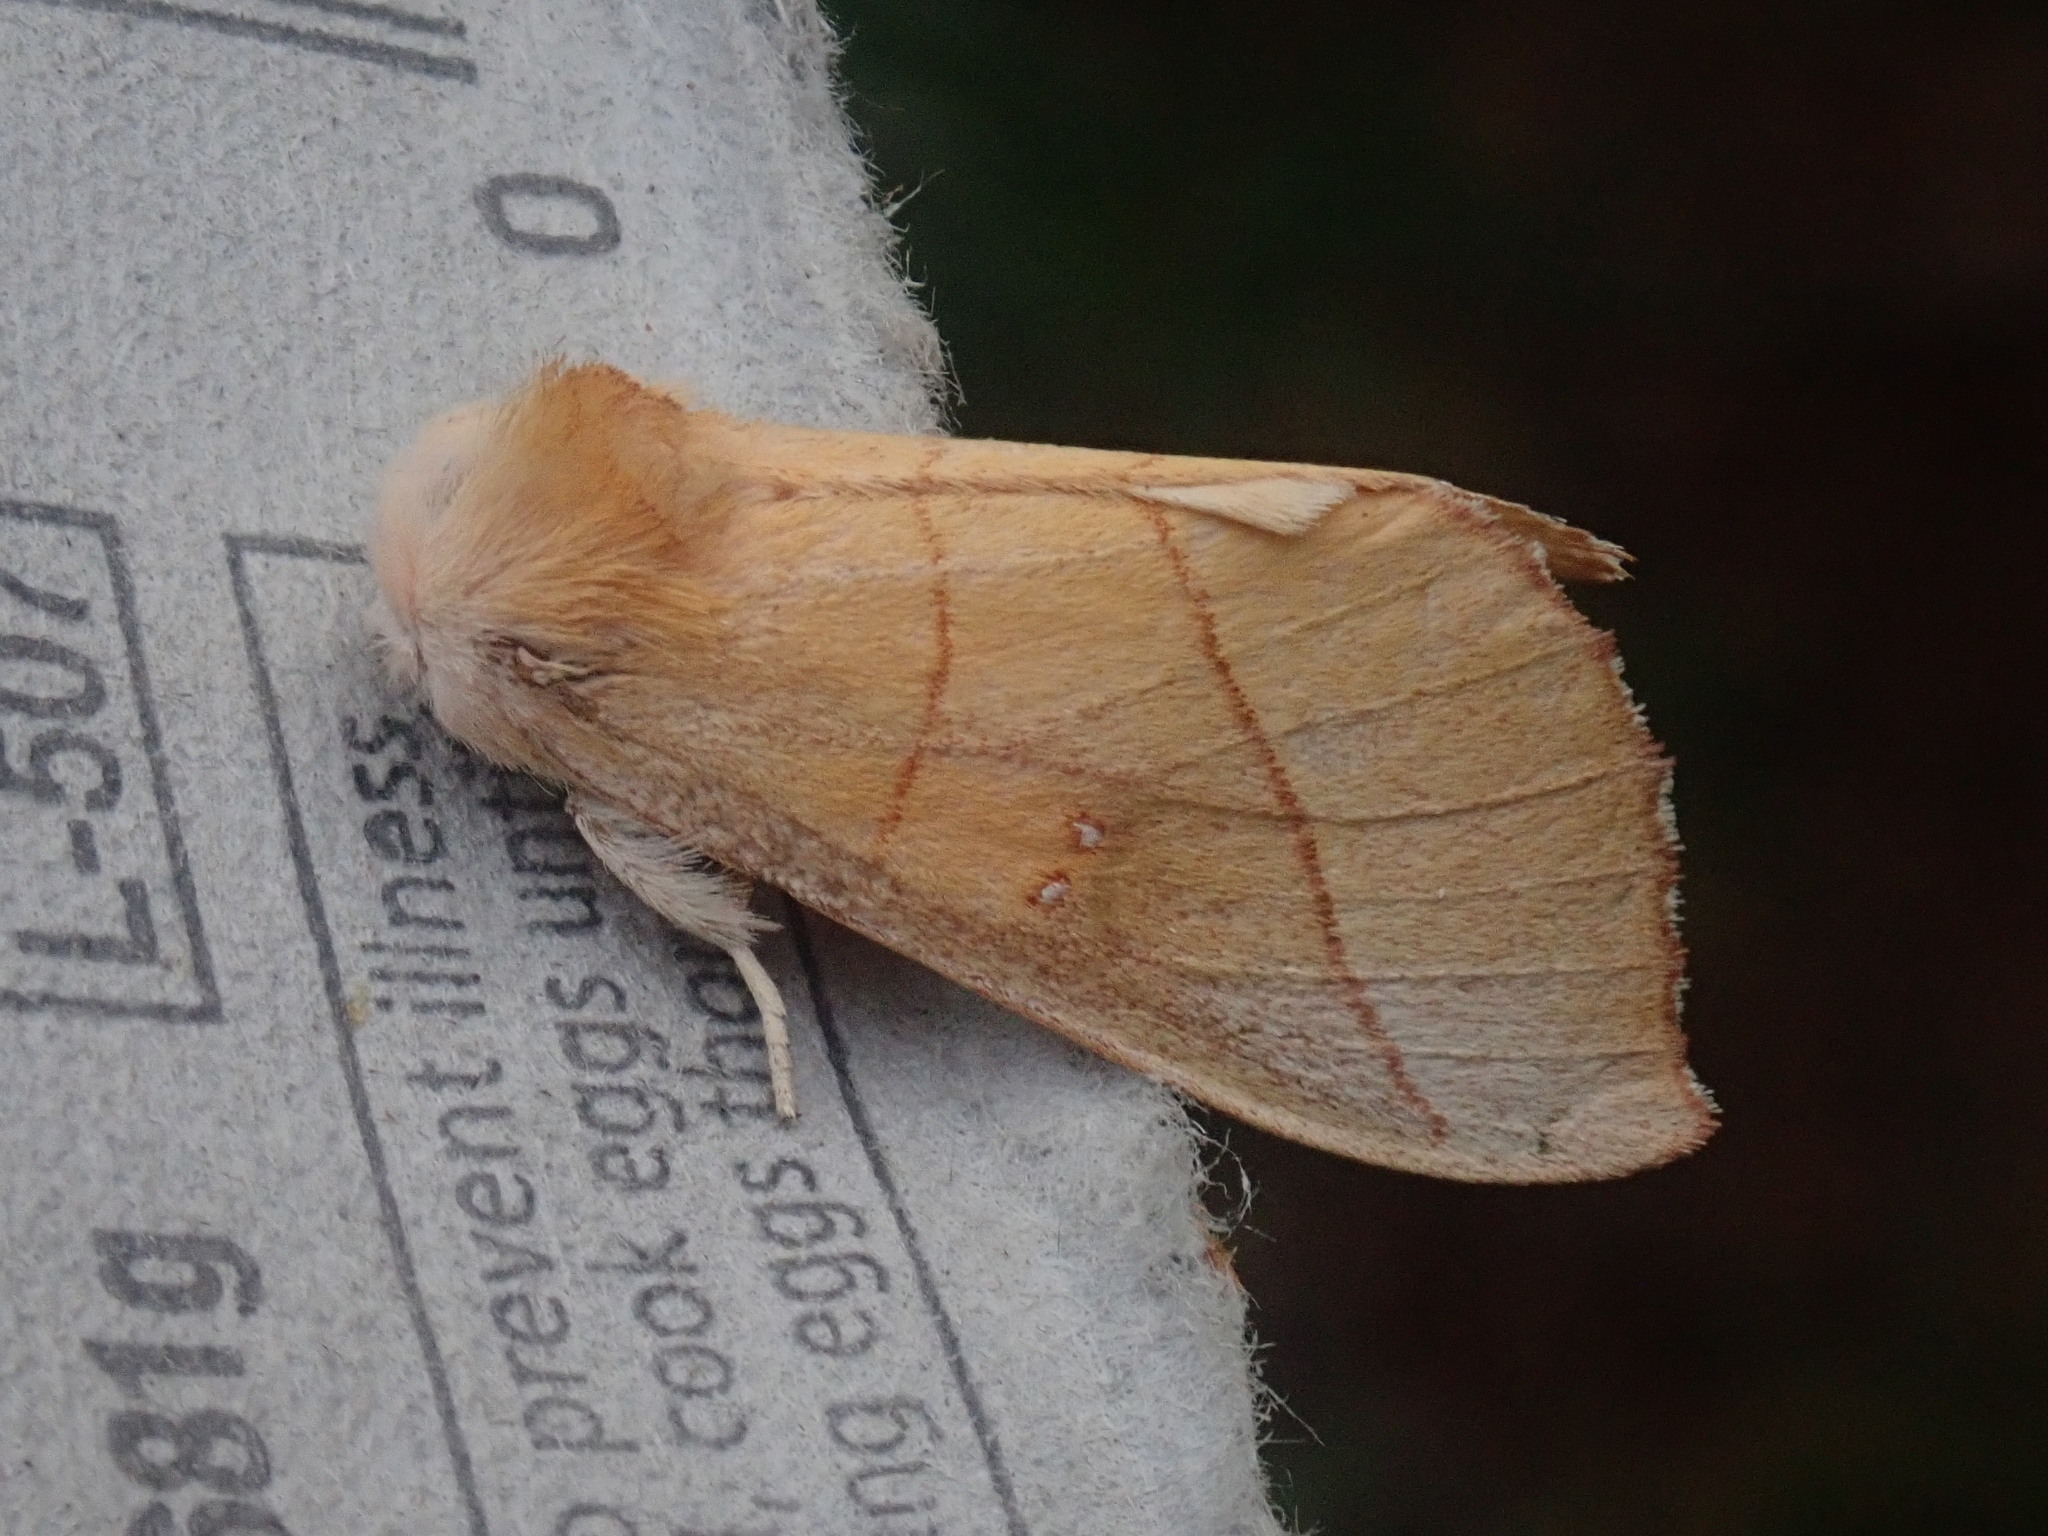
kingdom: Animalia
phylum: Arthropoda
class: Insecta
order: Lepidoptera
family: Notodontidae
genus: Nadata
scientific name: Nadata gibbosa
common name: White-dotted prominent
